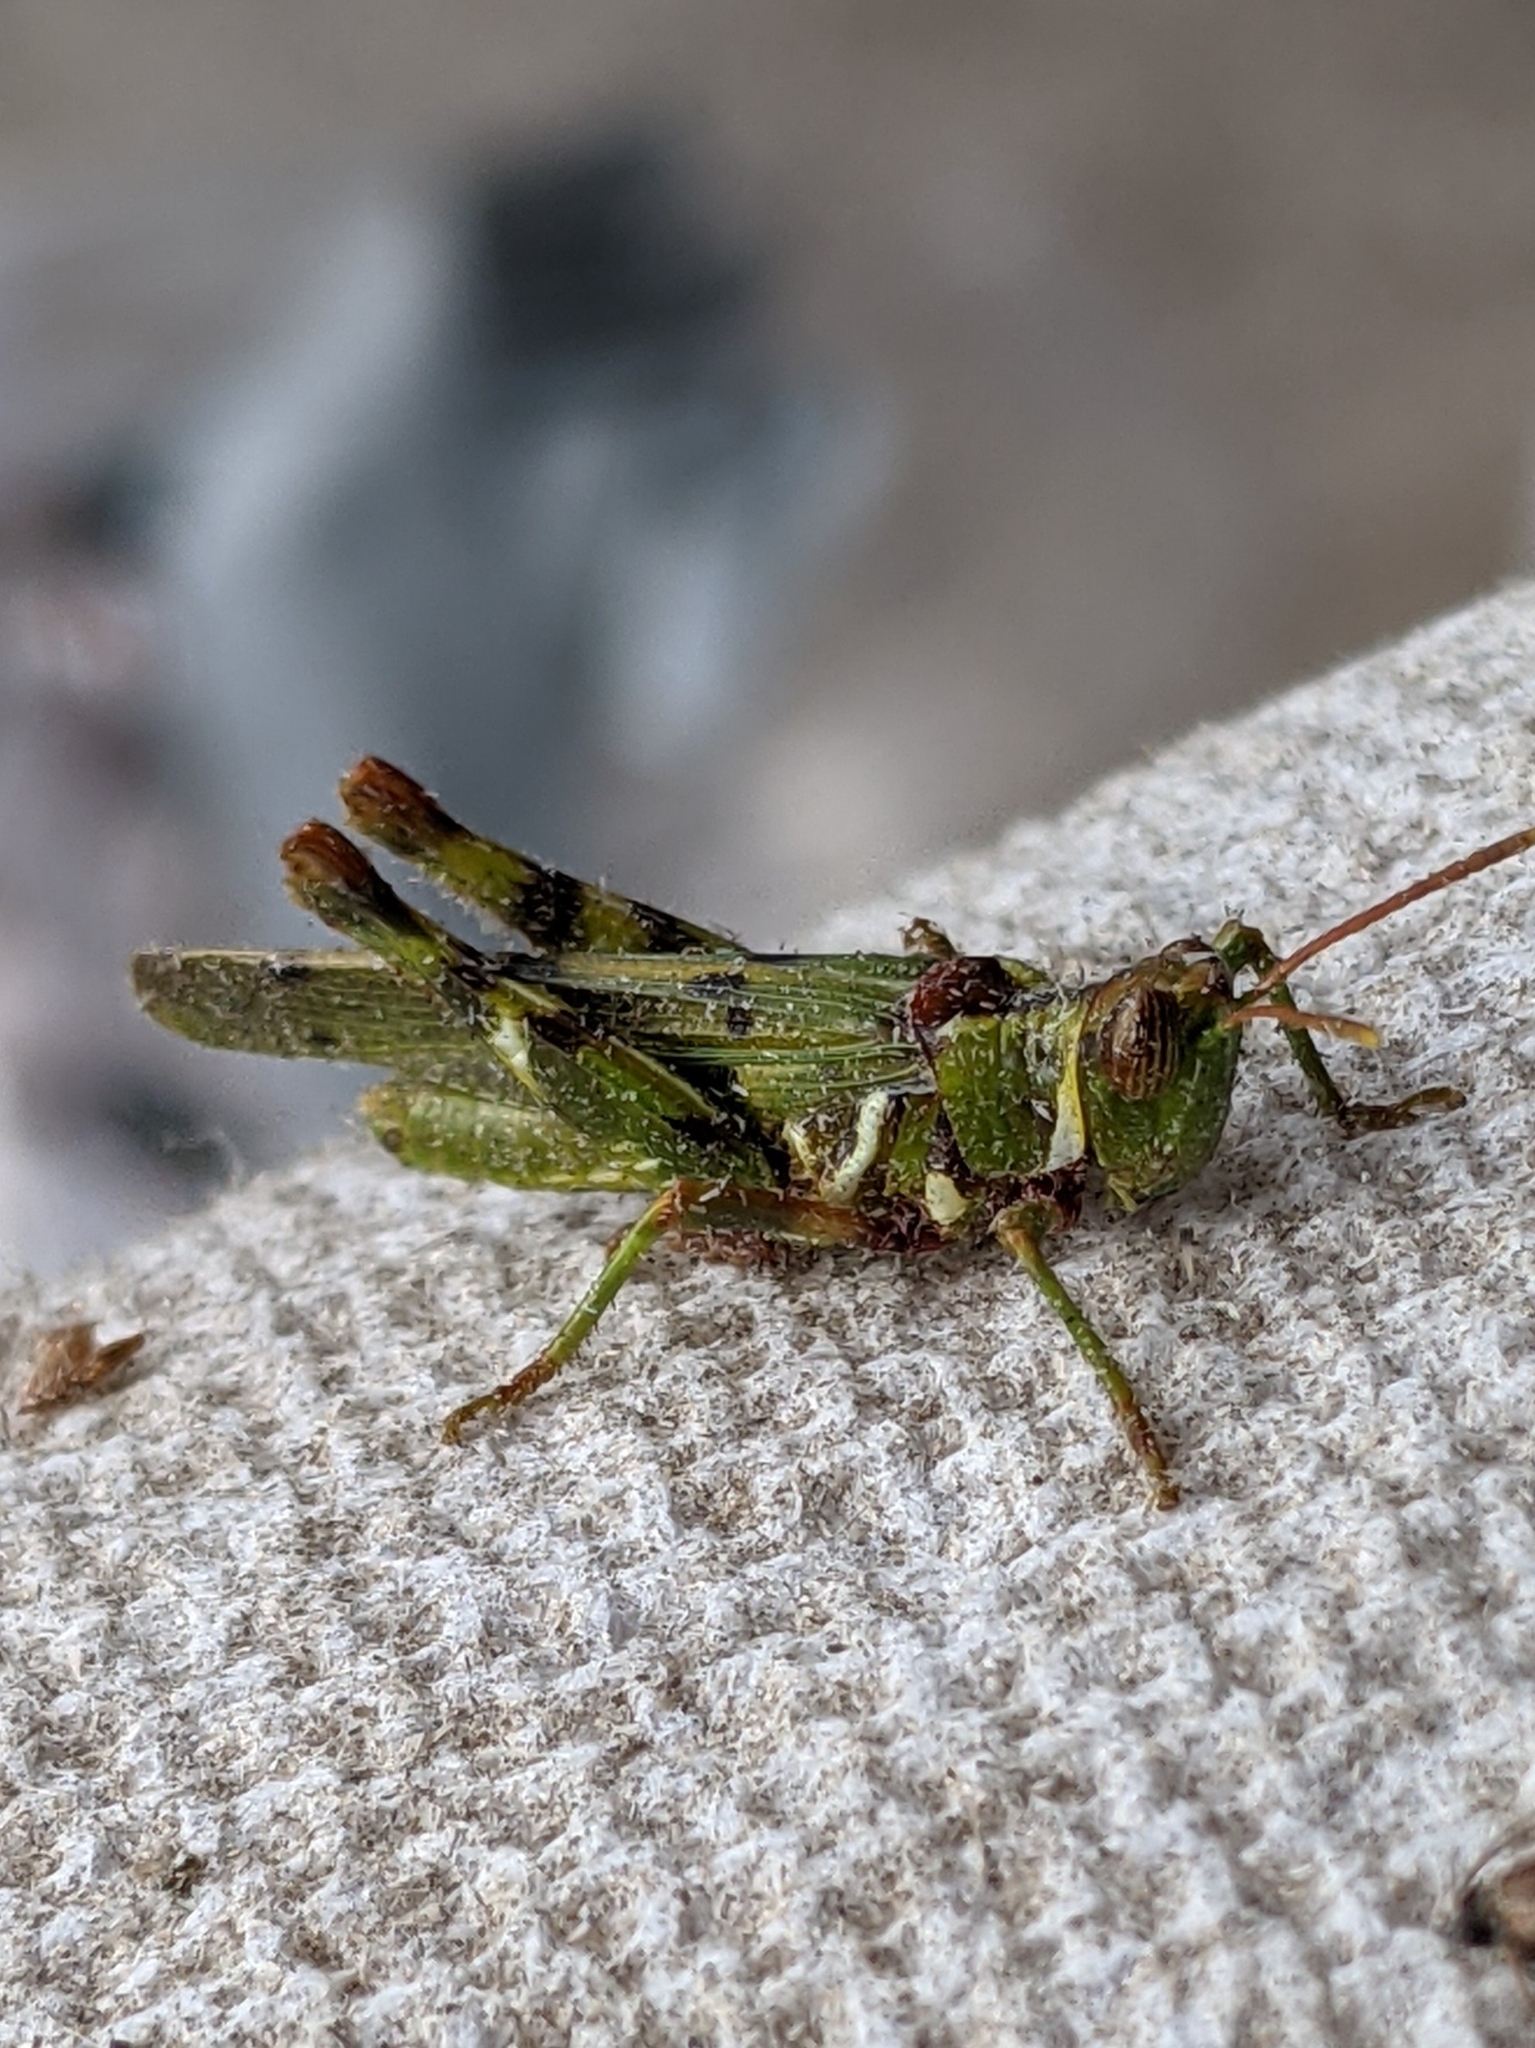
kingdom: Animalia
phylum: Arthropoda
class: Insecta
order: Orthoptera
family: Acrididae
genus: Bootettix
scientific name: Bootettix argentatus
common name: Creosote bush grasshopper
